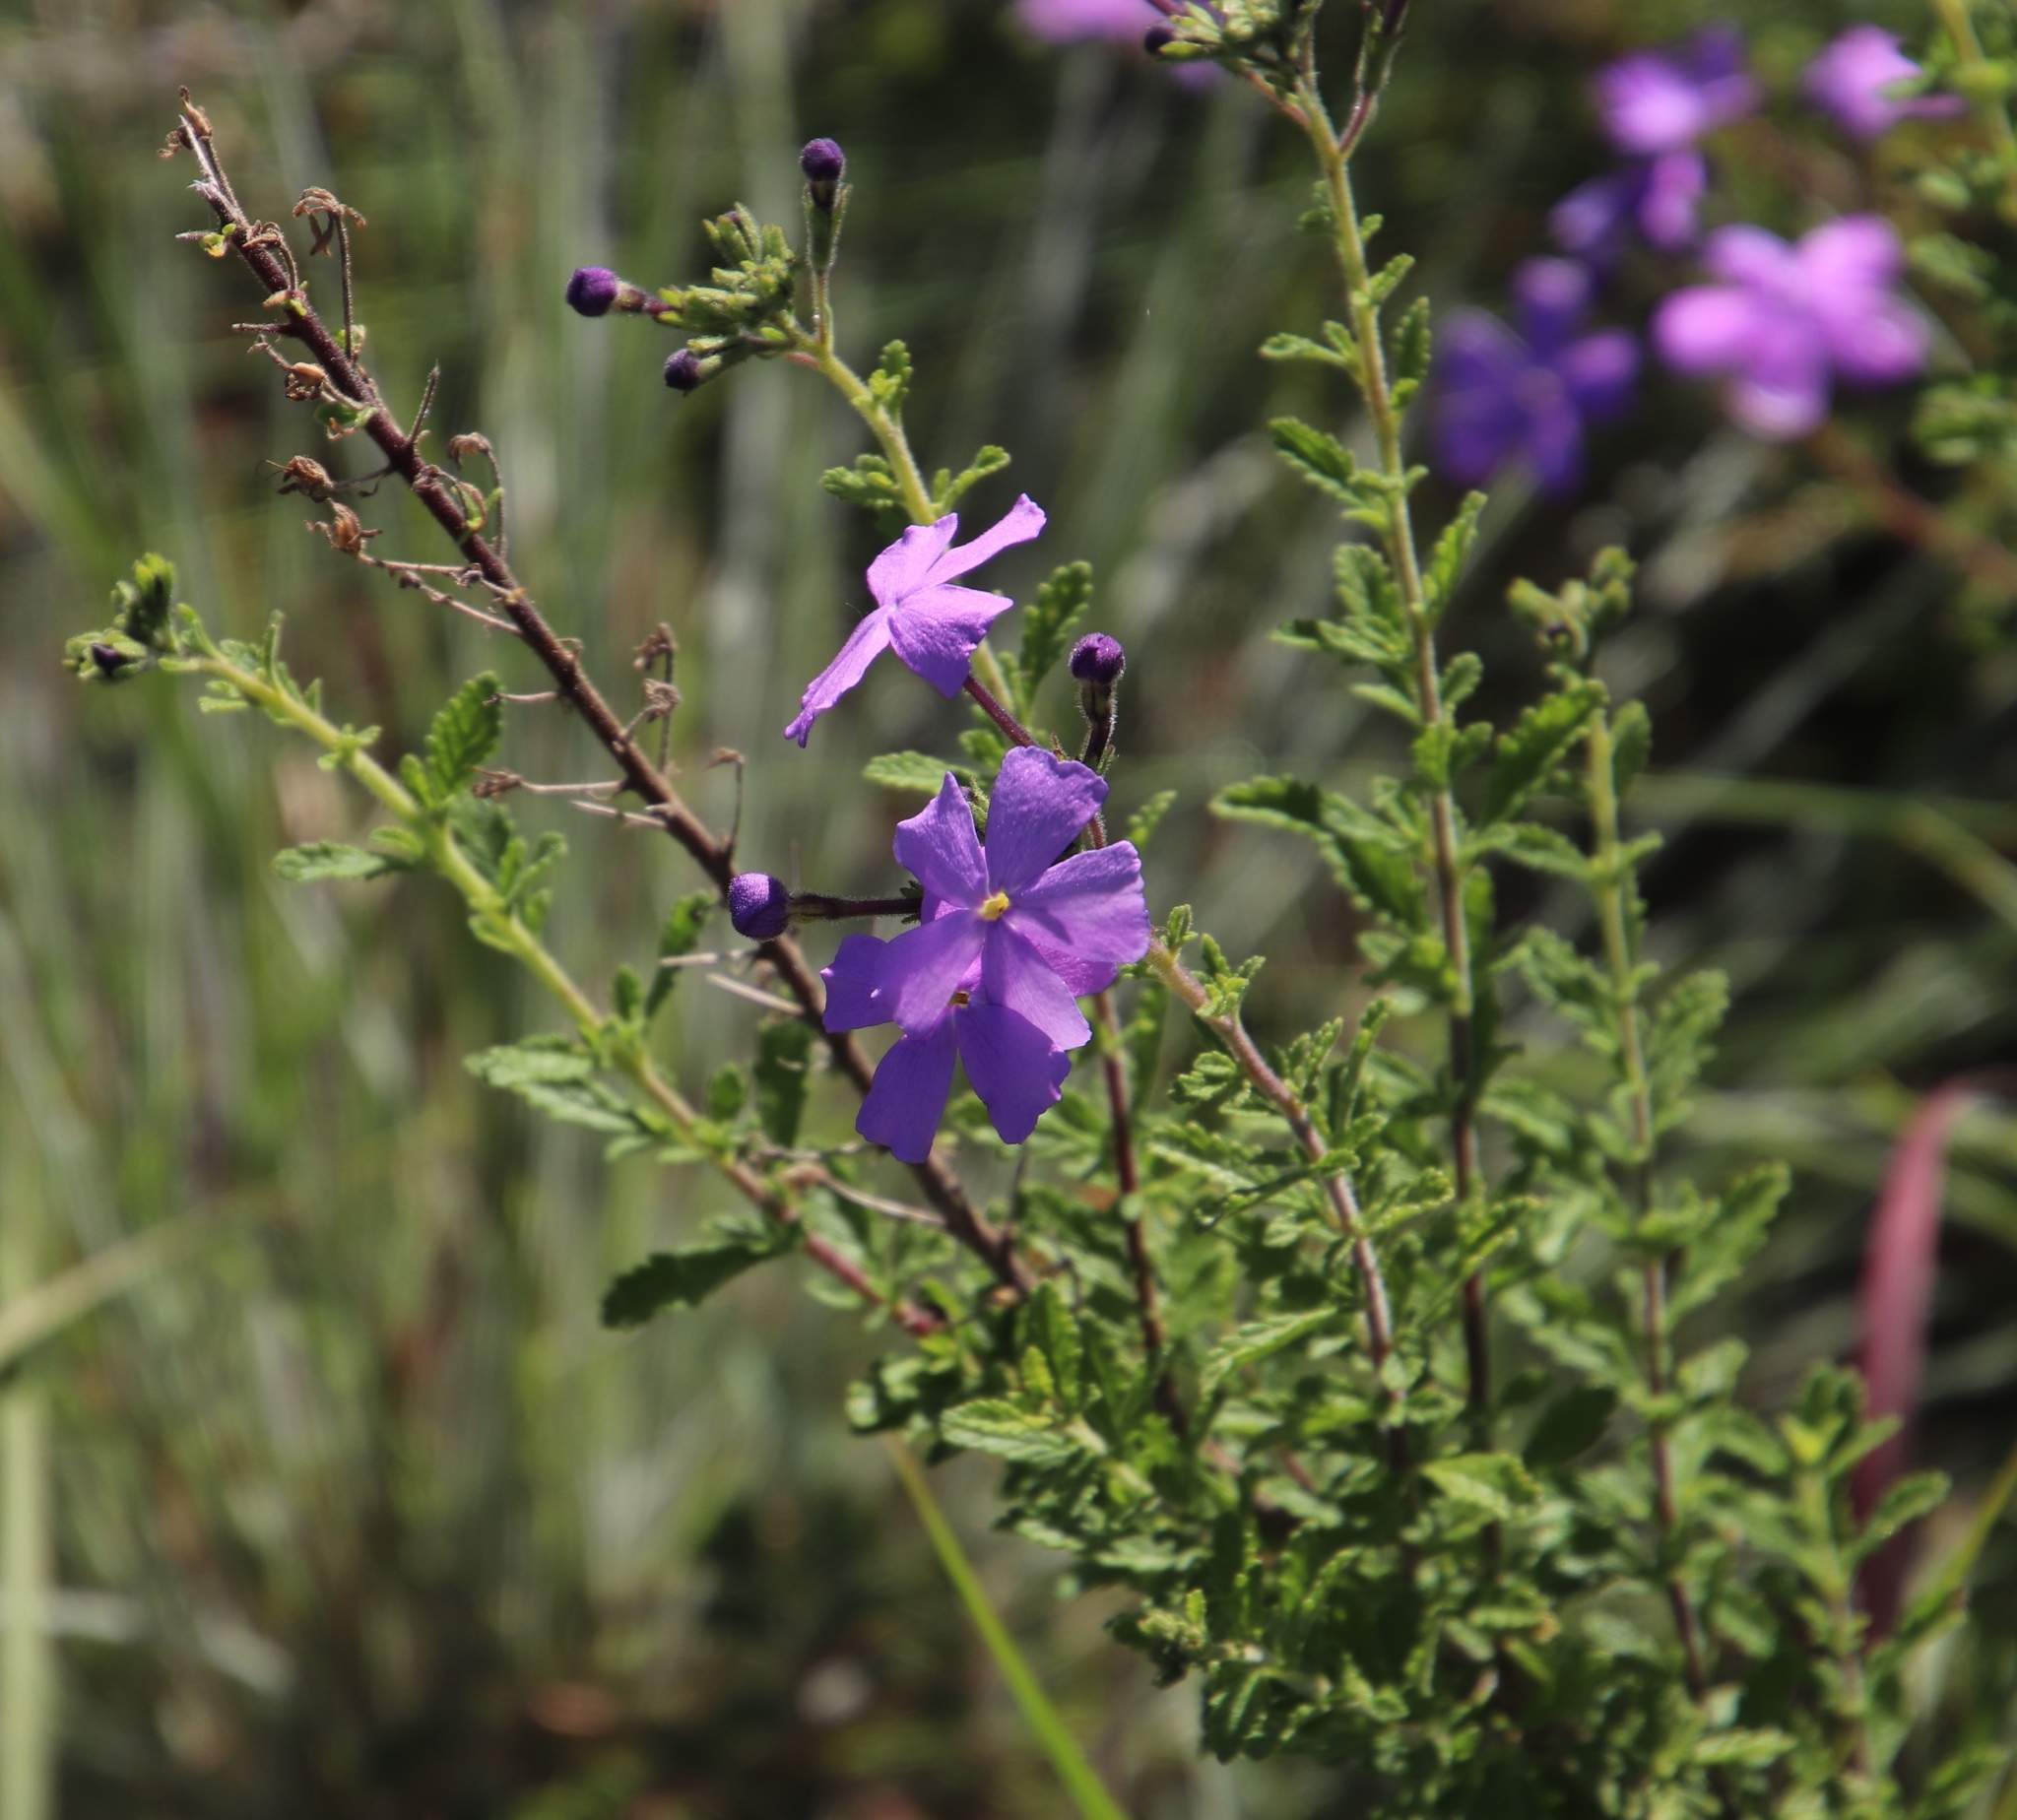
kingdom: Plantae
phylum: Tracheophyta
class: Magnoliopsida
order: Lamiales
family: Scrophulariaceae
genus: Jamesbrittenia
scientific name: Jamesbrittenia grandiflora
